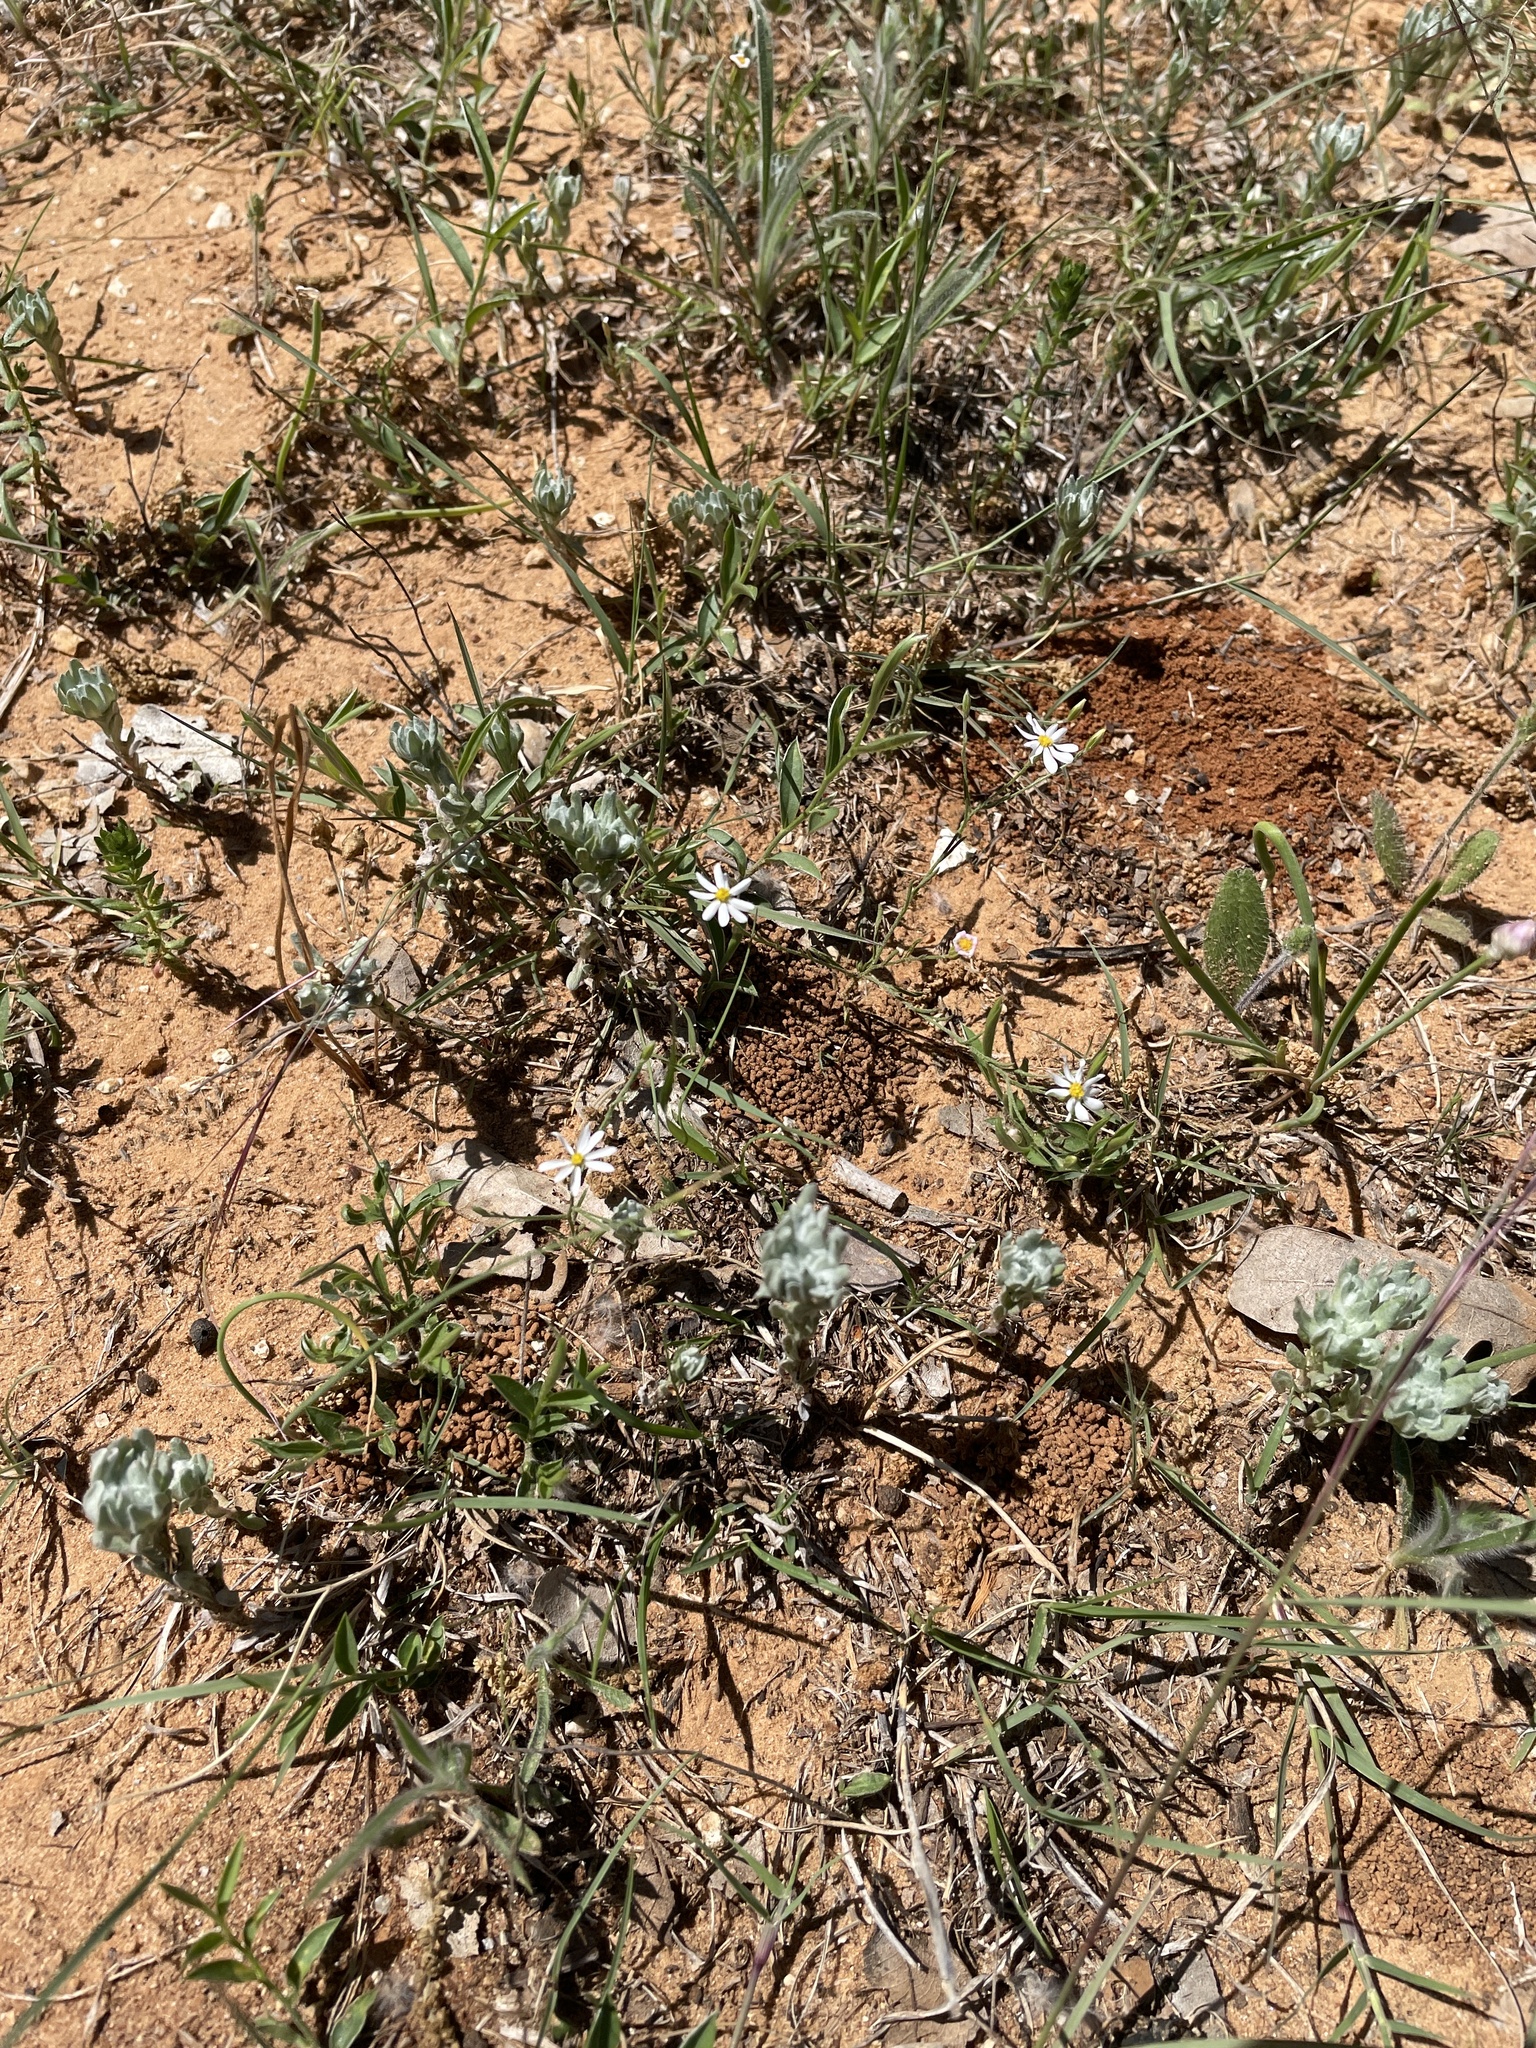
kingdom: Plantae
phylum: Tracheophyta
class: Magnoliopsida
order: Asterales
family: Asteraceae
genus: Chaetopappa
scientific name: Chaetopappa asteroides
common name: Tiny lazy daisy
